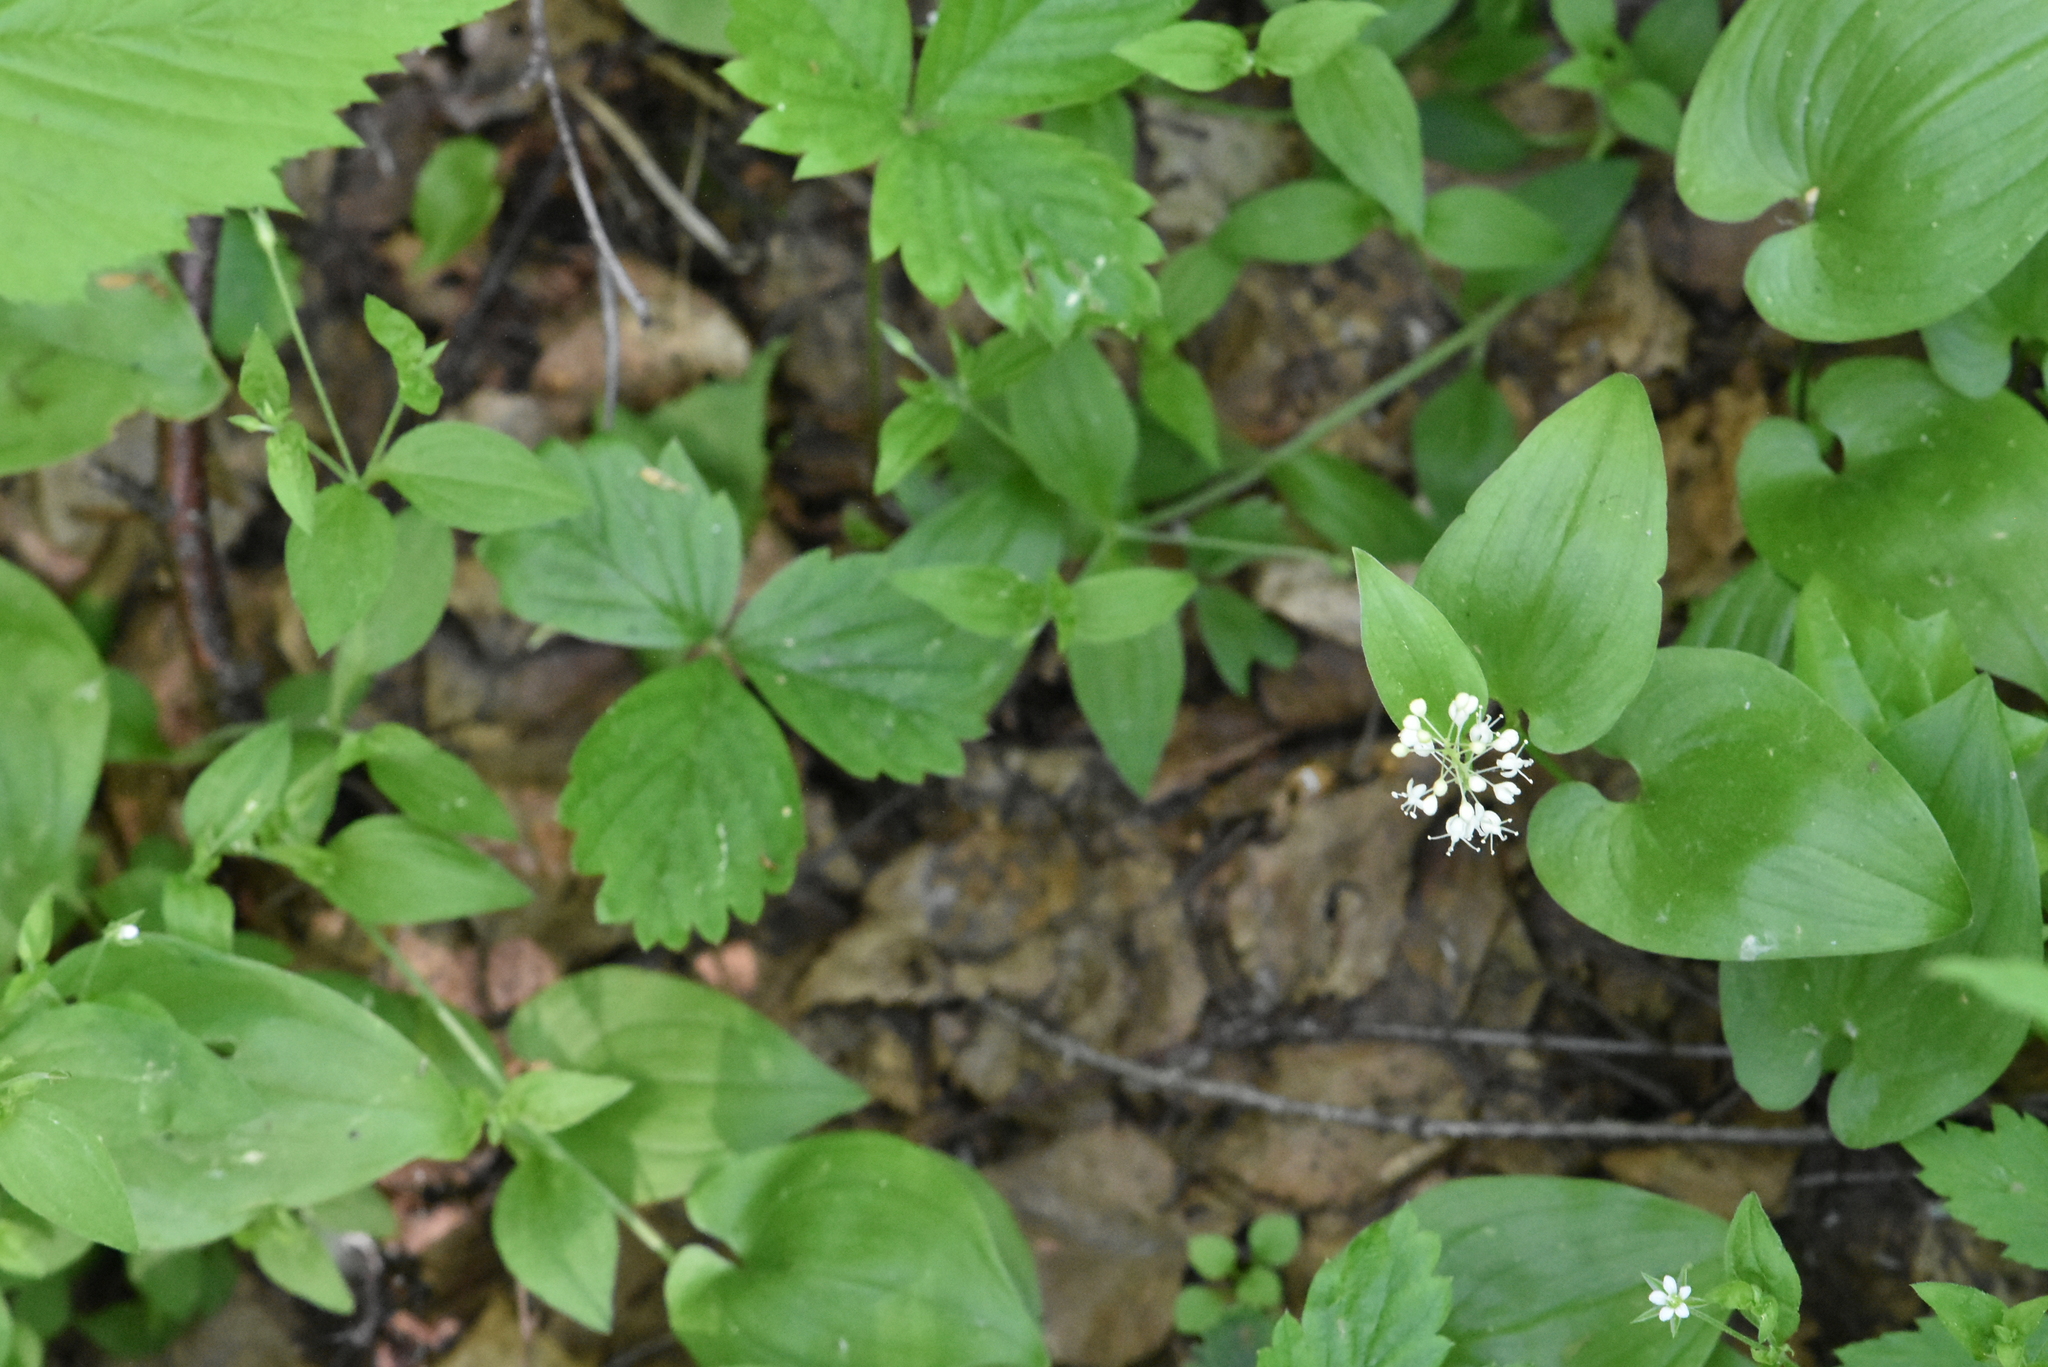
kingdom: Plantae
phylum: Tracheophyta
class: Liliopsida
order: Asparagales
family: Asparagaceae
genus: Maianthemum
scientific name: Maianthemum bifolium
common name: May lily
